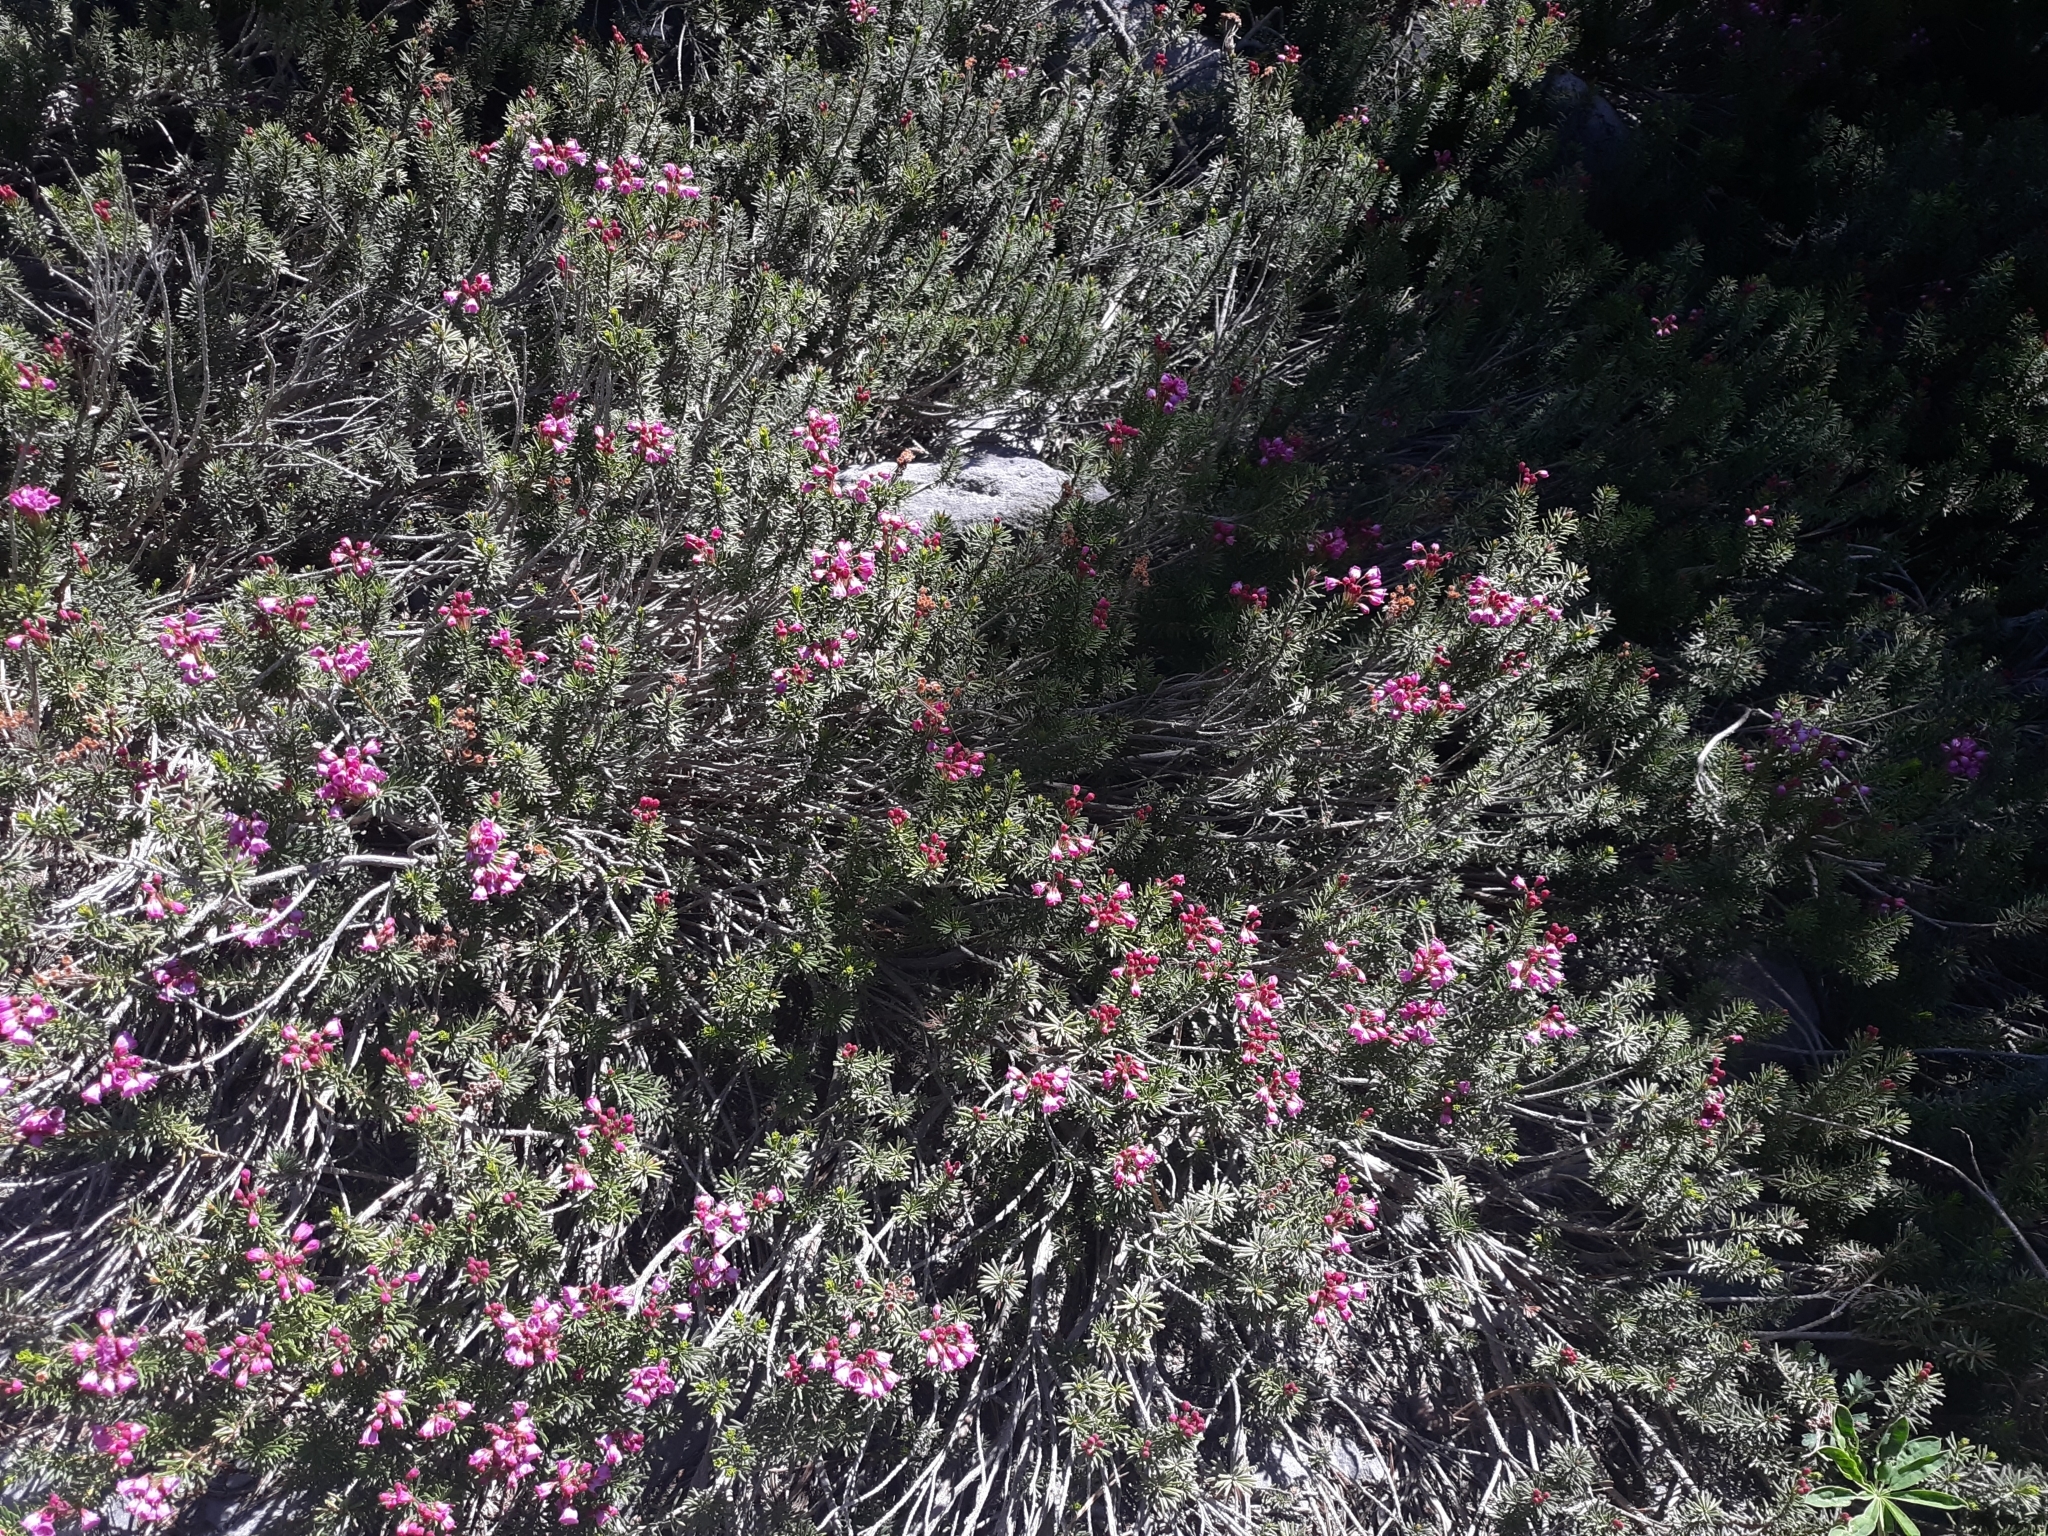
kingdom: Plantae
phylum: Tracheophyta
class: Magnoliopsida
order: Ericales
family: Ericaceae
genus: Phyllodoce
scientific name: Phyllodoce empetriformis
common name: Pink mountain heather
